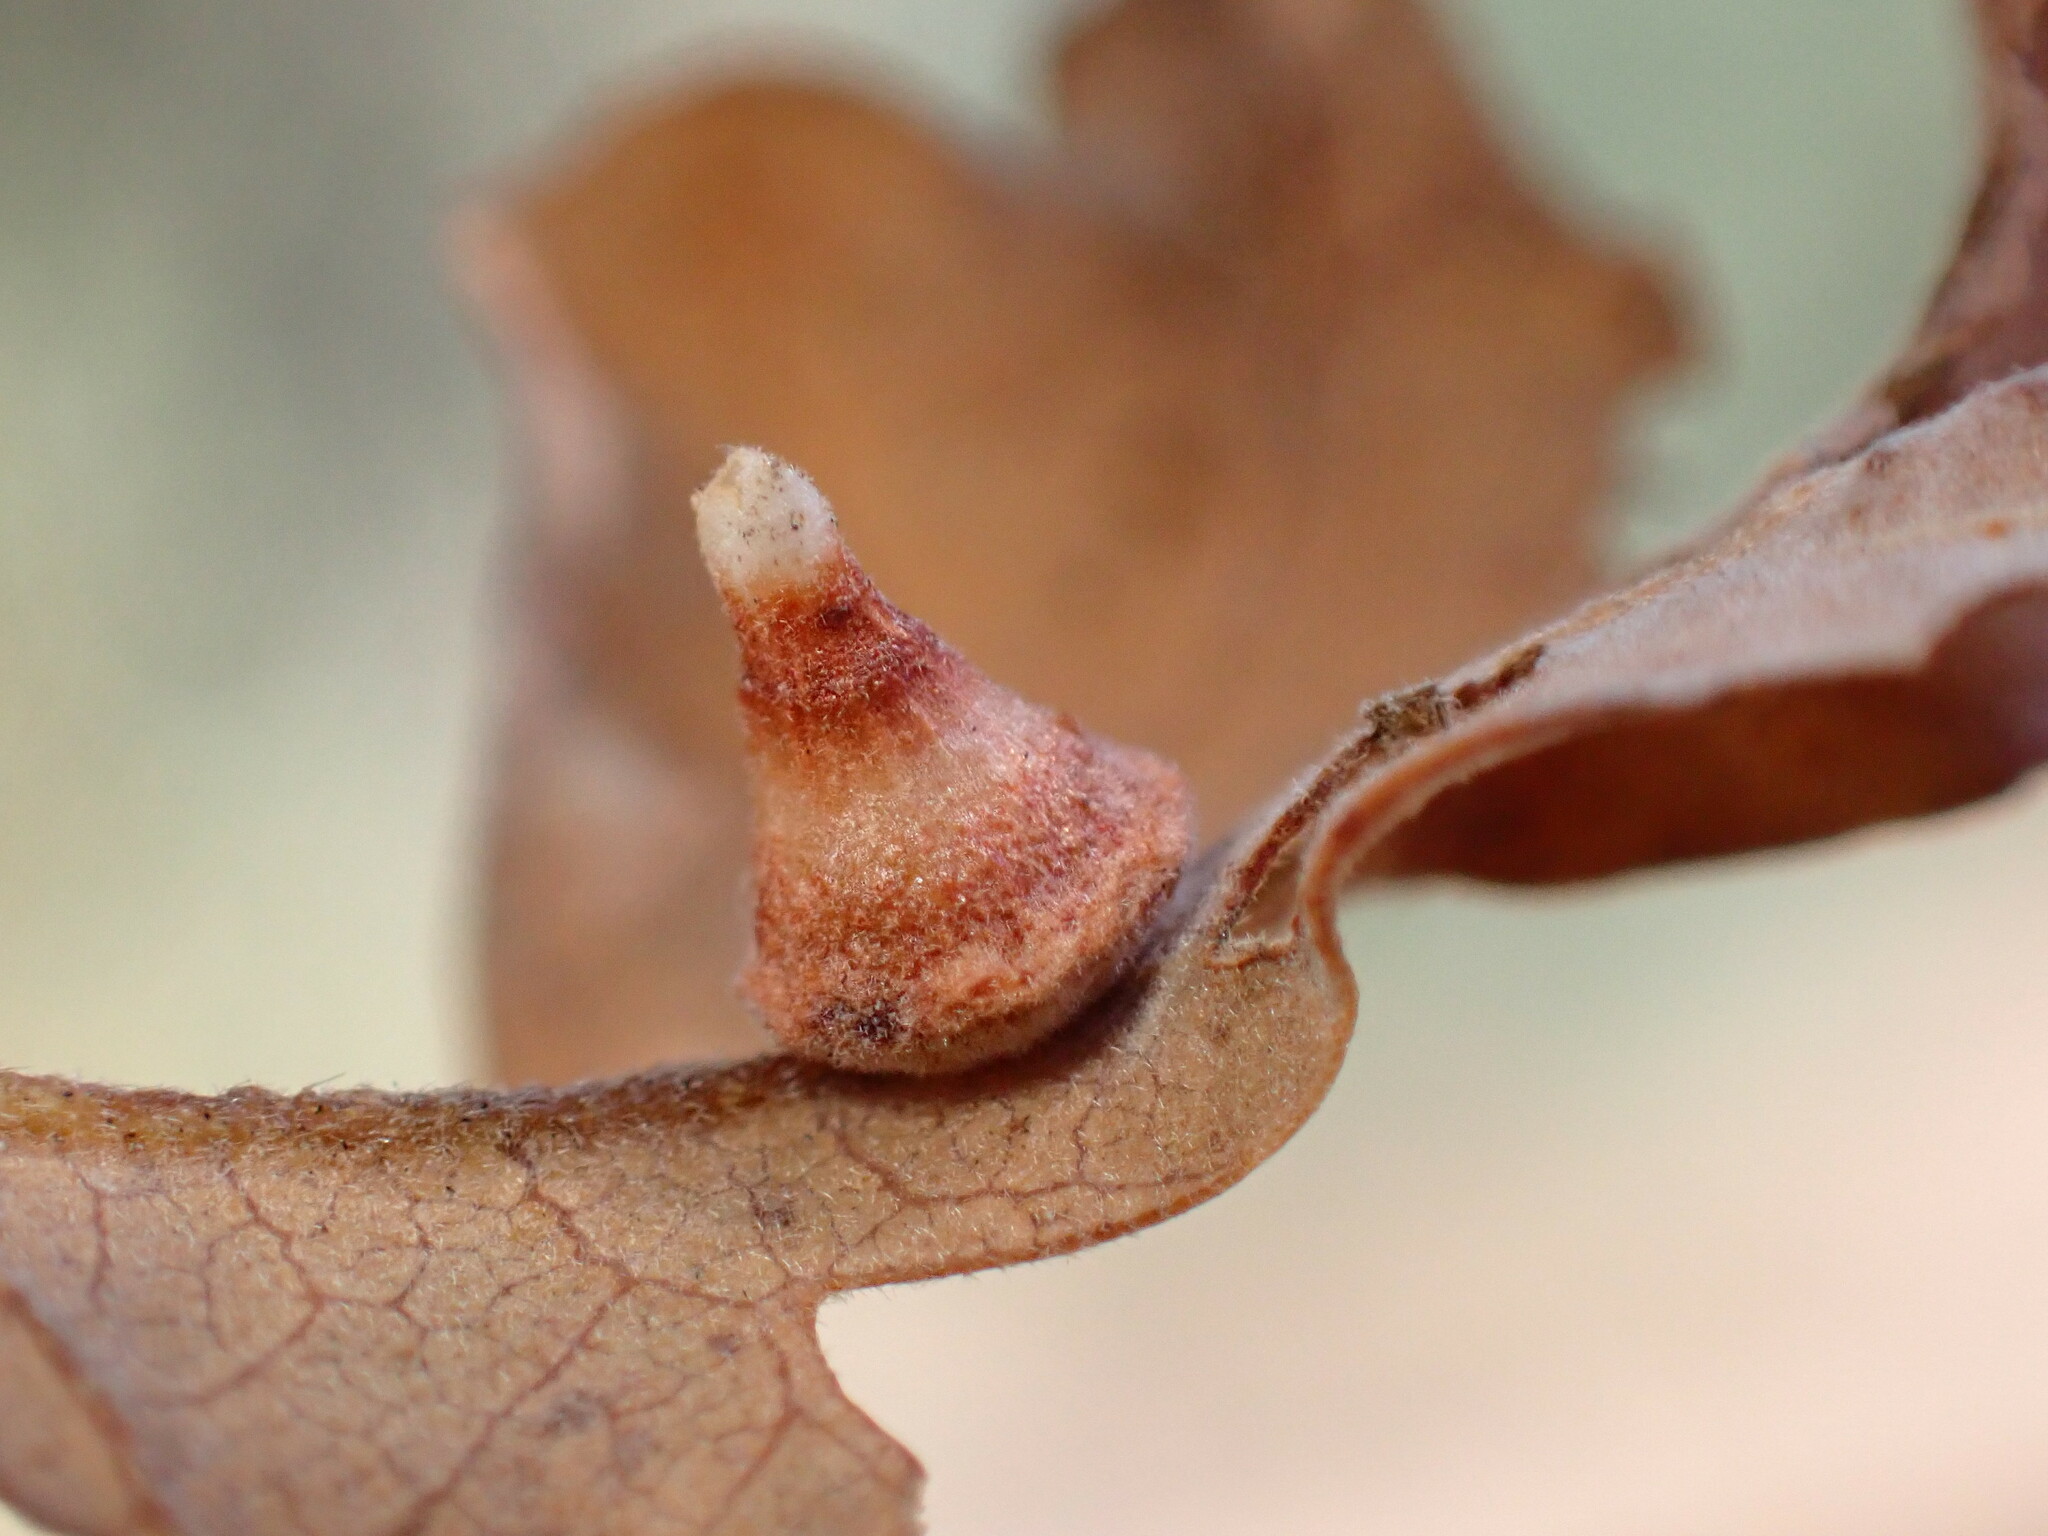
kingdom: Animalia
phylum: Arthropoda
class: Insecta
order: Hymenoptera
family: Cynipidae
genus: Andricus
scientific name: Andricus
